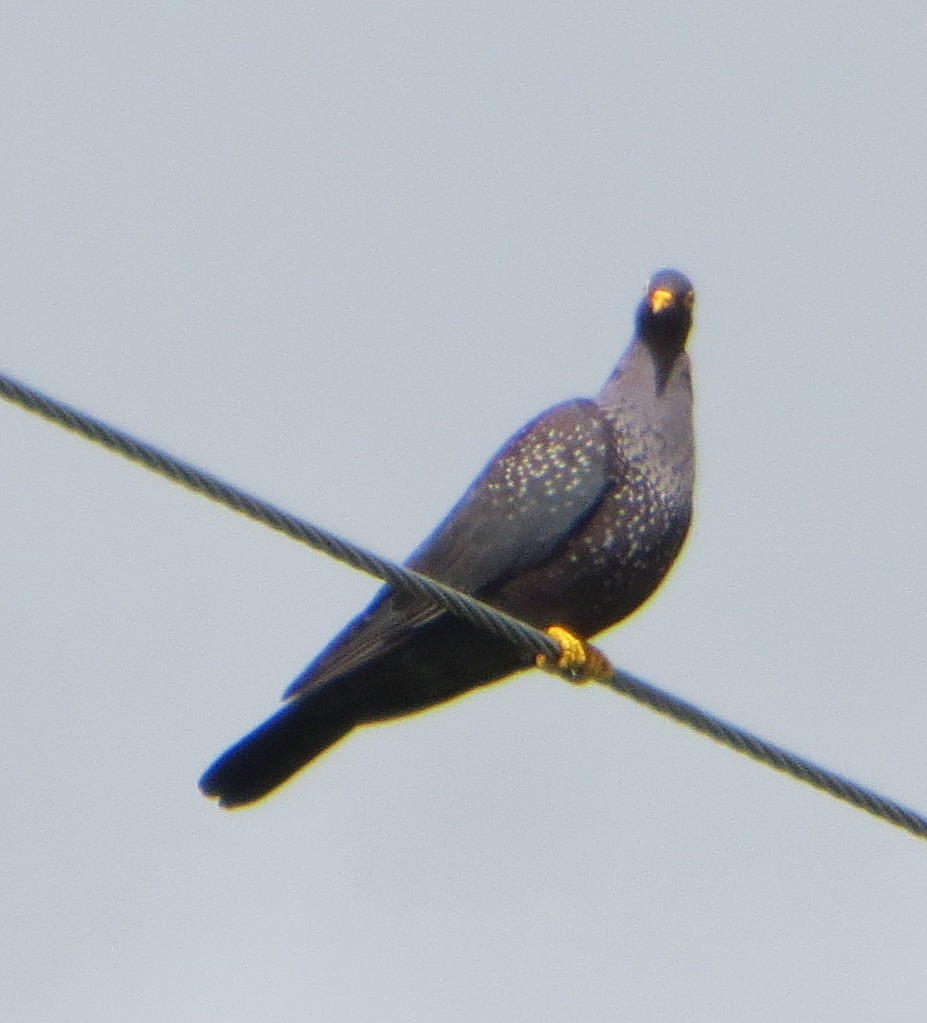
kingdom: Animalia
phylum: Chordata
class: Aves
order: Columbiformes
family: Columbidae
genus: Columba
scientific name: Columba arquatrix
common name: African olive pigeon
